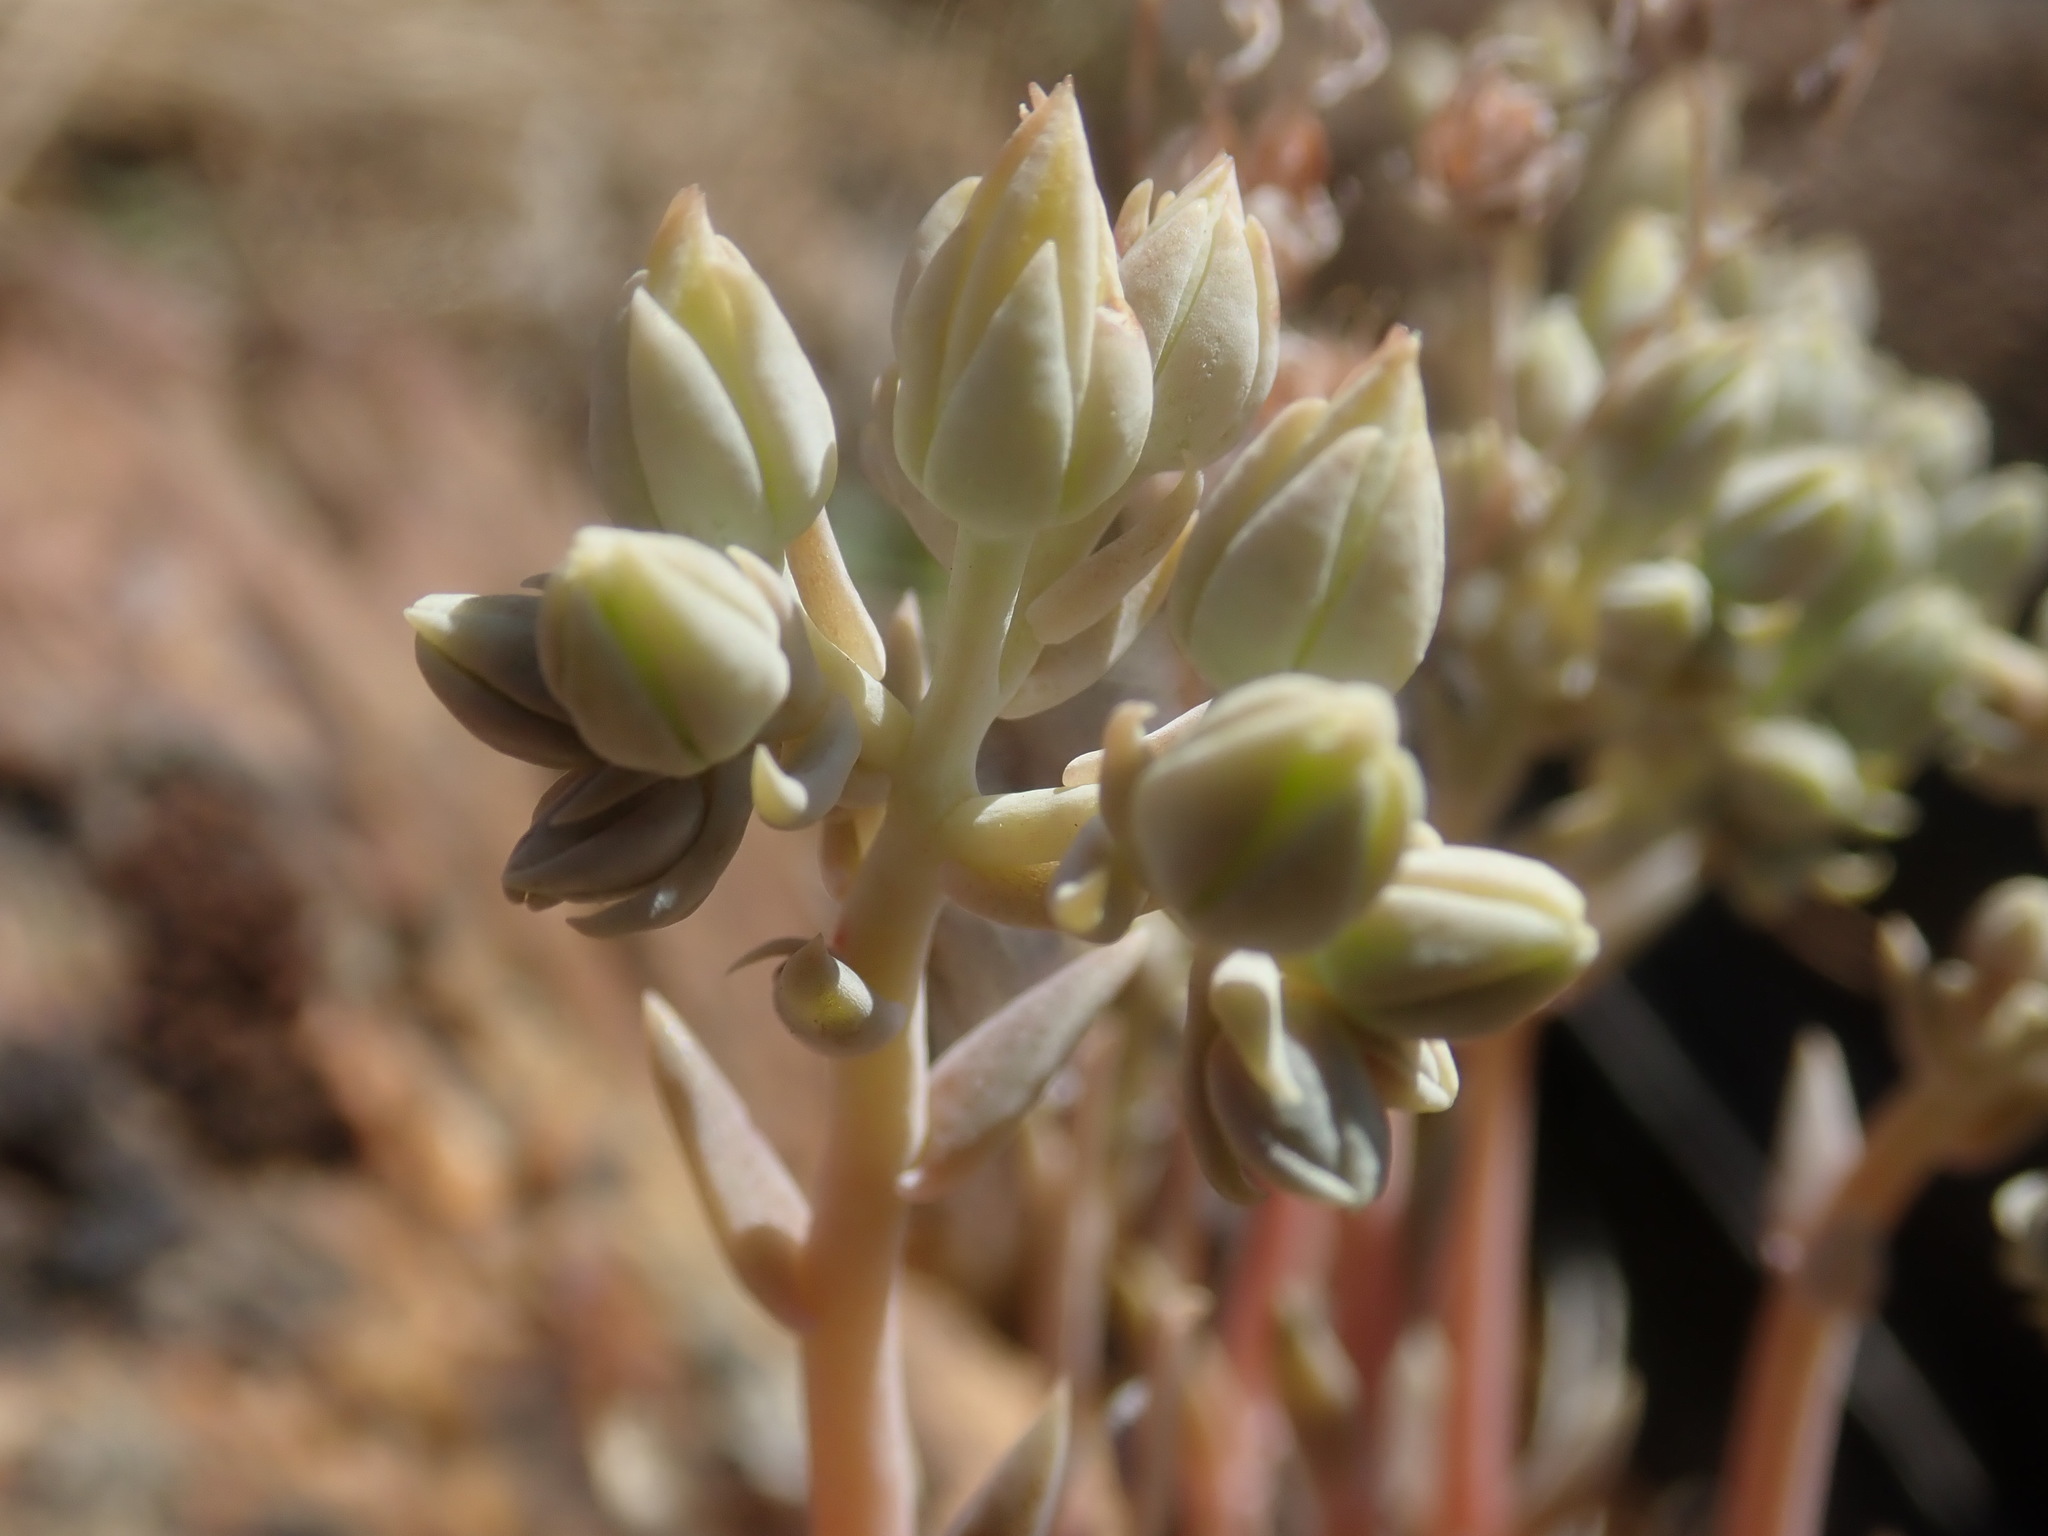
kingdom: Plantae
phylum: Tracheophyta
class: Magnoliopsida
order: Saxifragales
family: Crassulaceae
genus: Dudleya
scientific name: Dudleya calcicola
